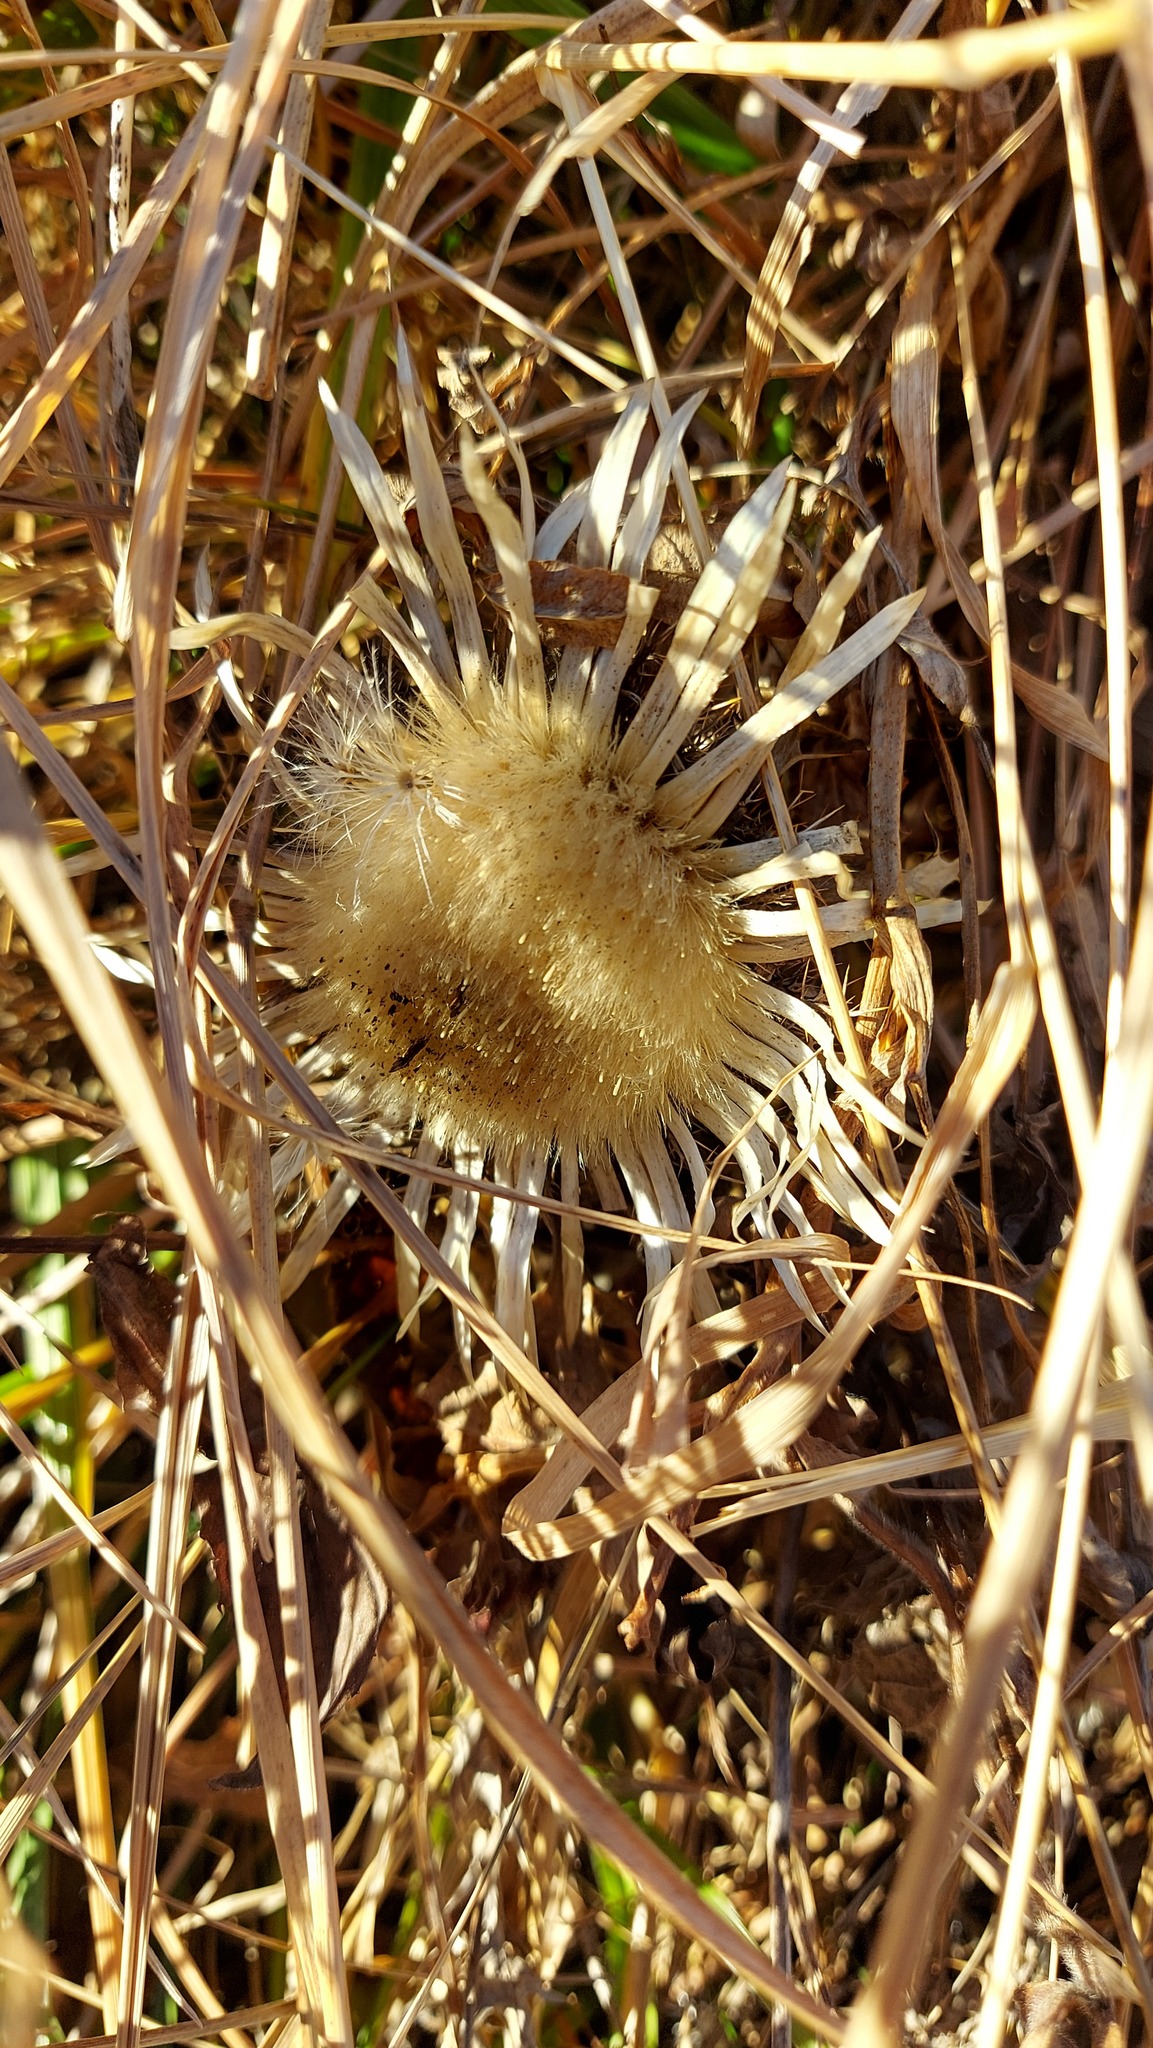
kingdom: Plantae
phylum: Tracheophyta
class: Magnoliopsida
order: Asterales
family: Asteraceae
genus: Carlina
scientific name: Carlina acaulis
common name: Stemless carline thistle
